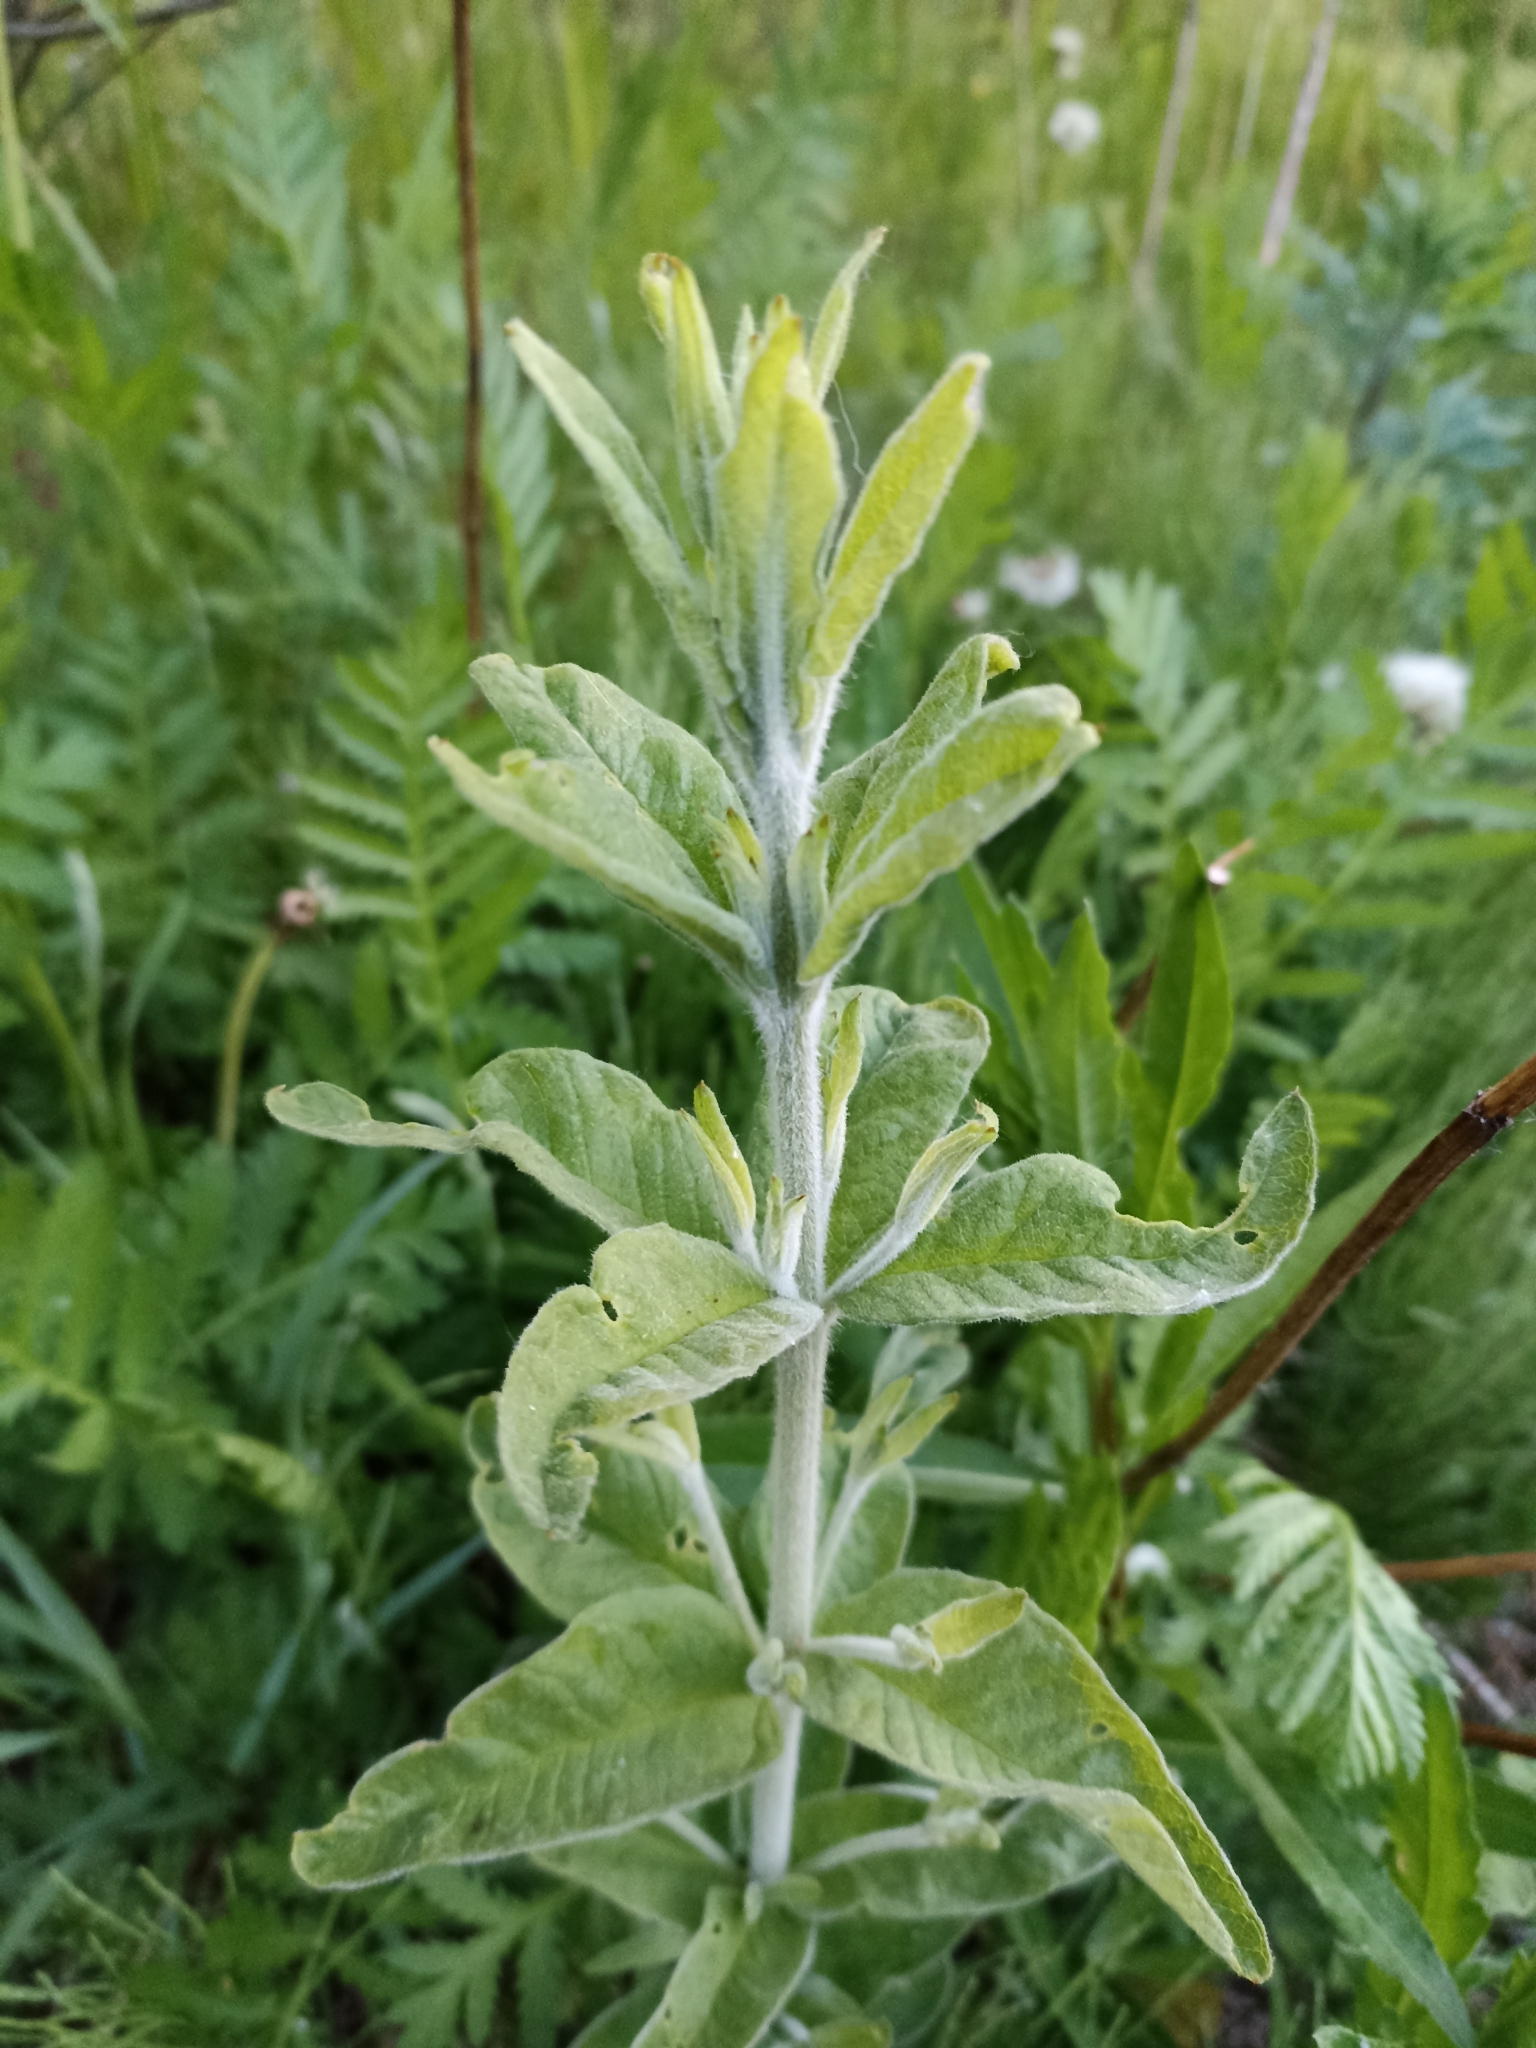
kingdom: Plantae
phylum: Tracheophyta
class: Magnoliopsida
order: Ericales
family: Primulaceae
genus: Lysimachia
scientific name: Lysimachia vulgaris
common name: Yellow loosestrife
